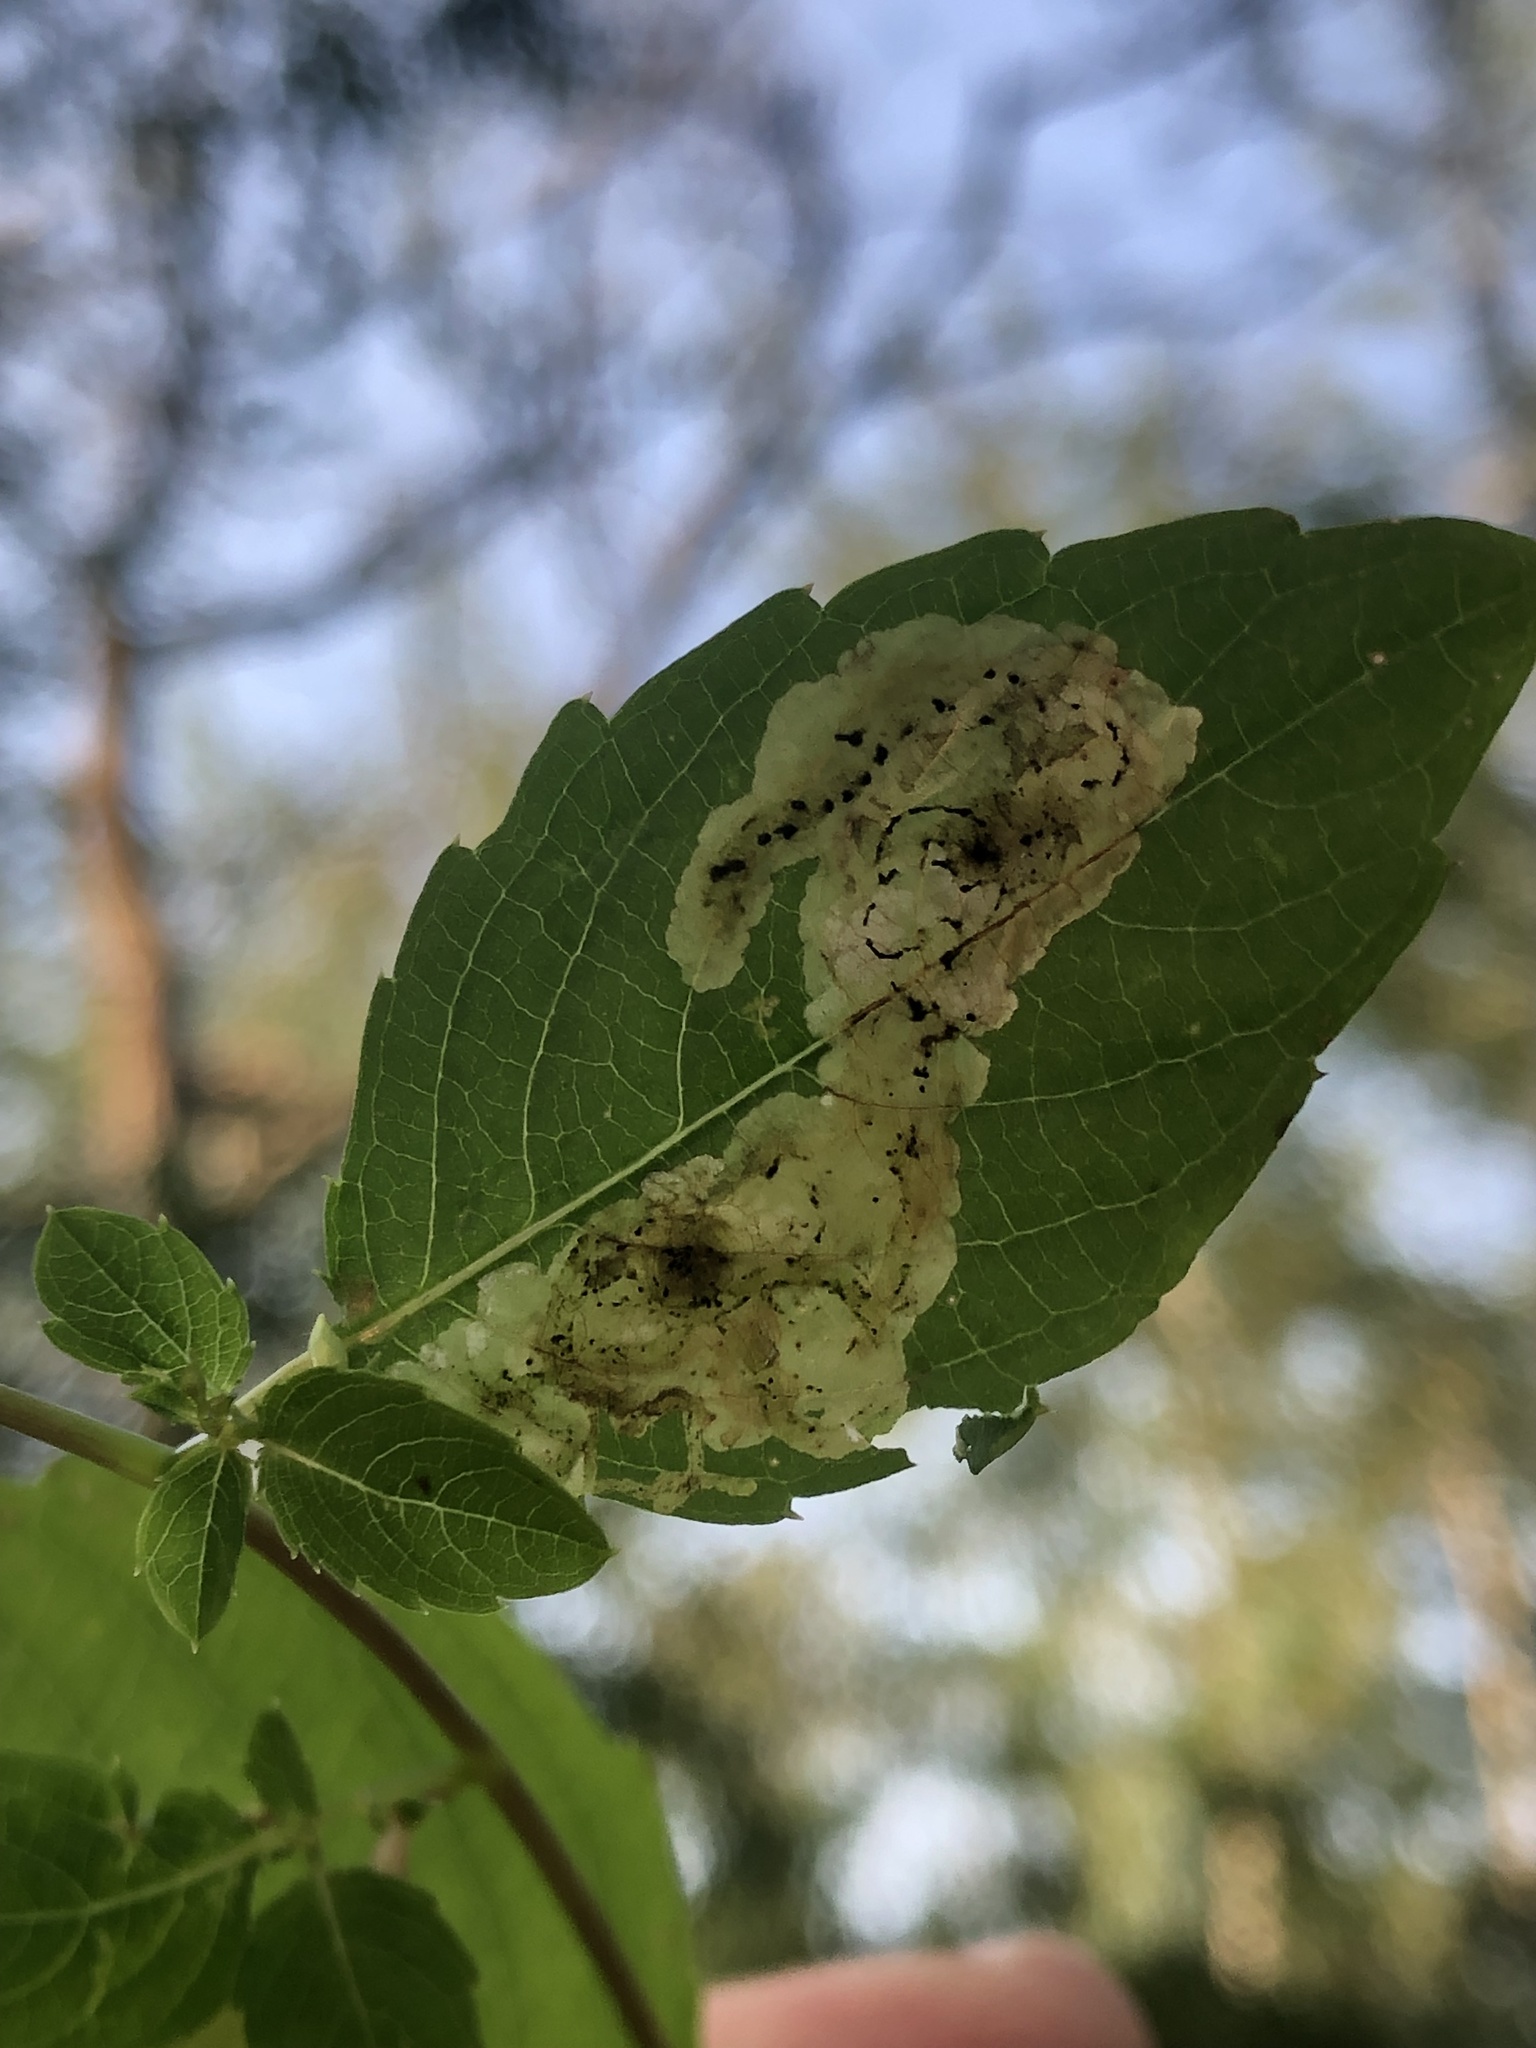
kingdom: Animalia
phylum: Arthropoda
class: Insecta
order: Diptera
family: Agromyzidae
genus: Phytoliriomyza
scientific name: Phytoliriomyza melampyga
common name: Jewelweed leaf-miner fly
